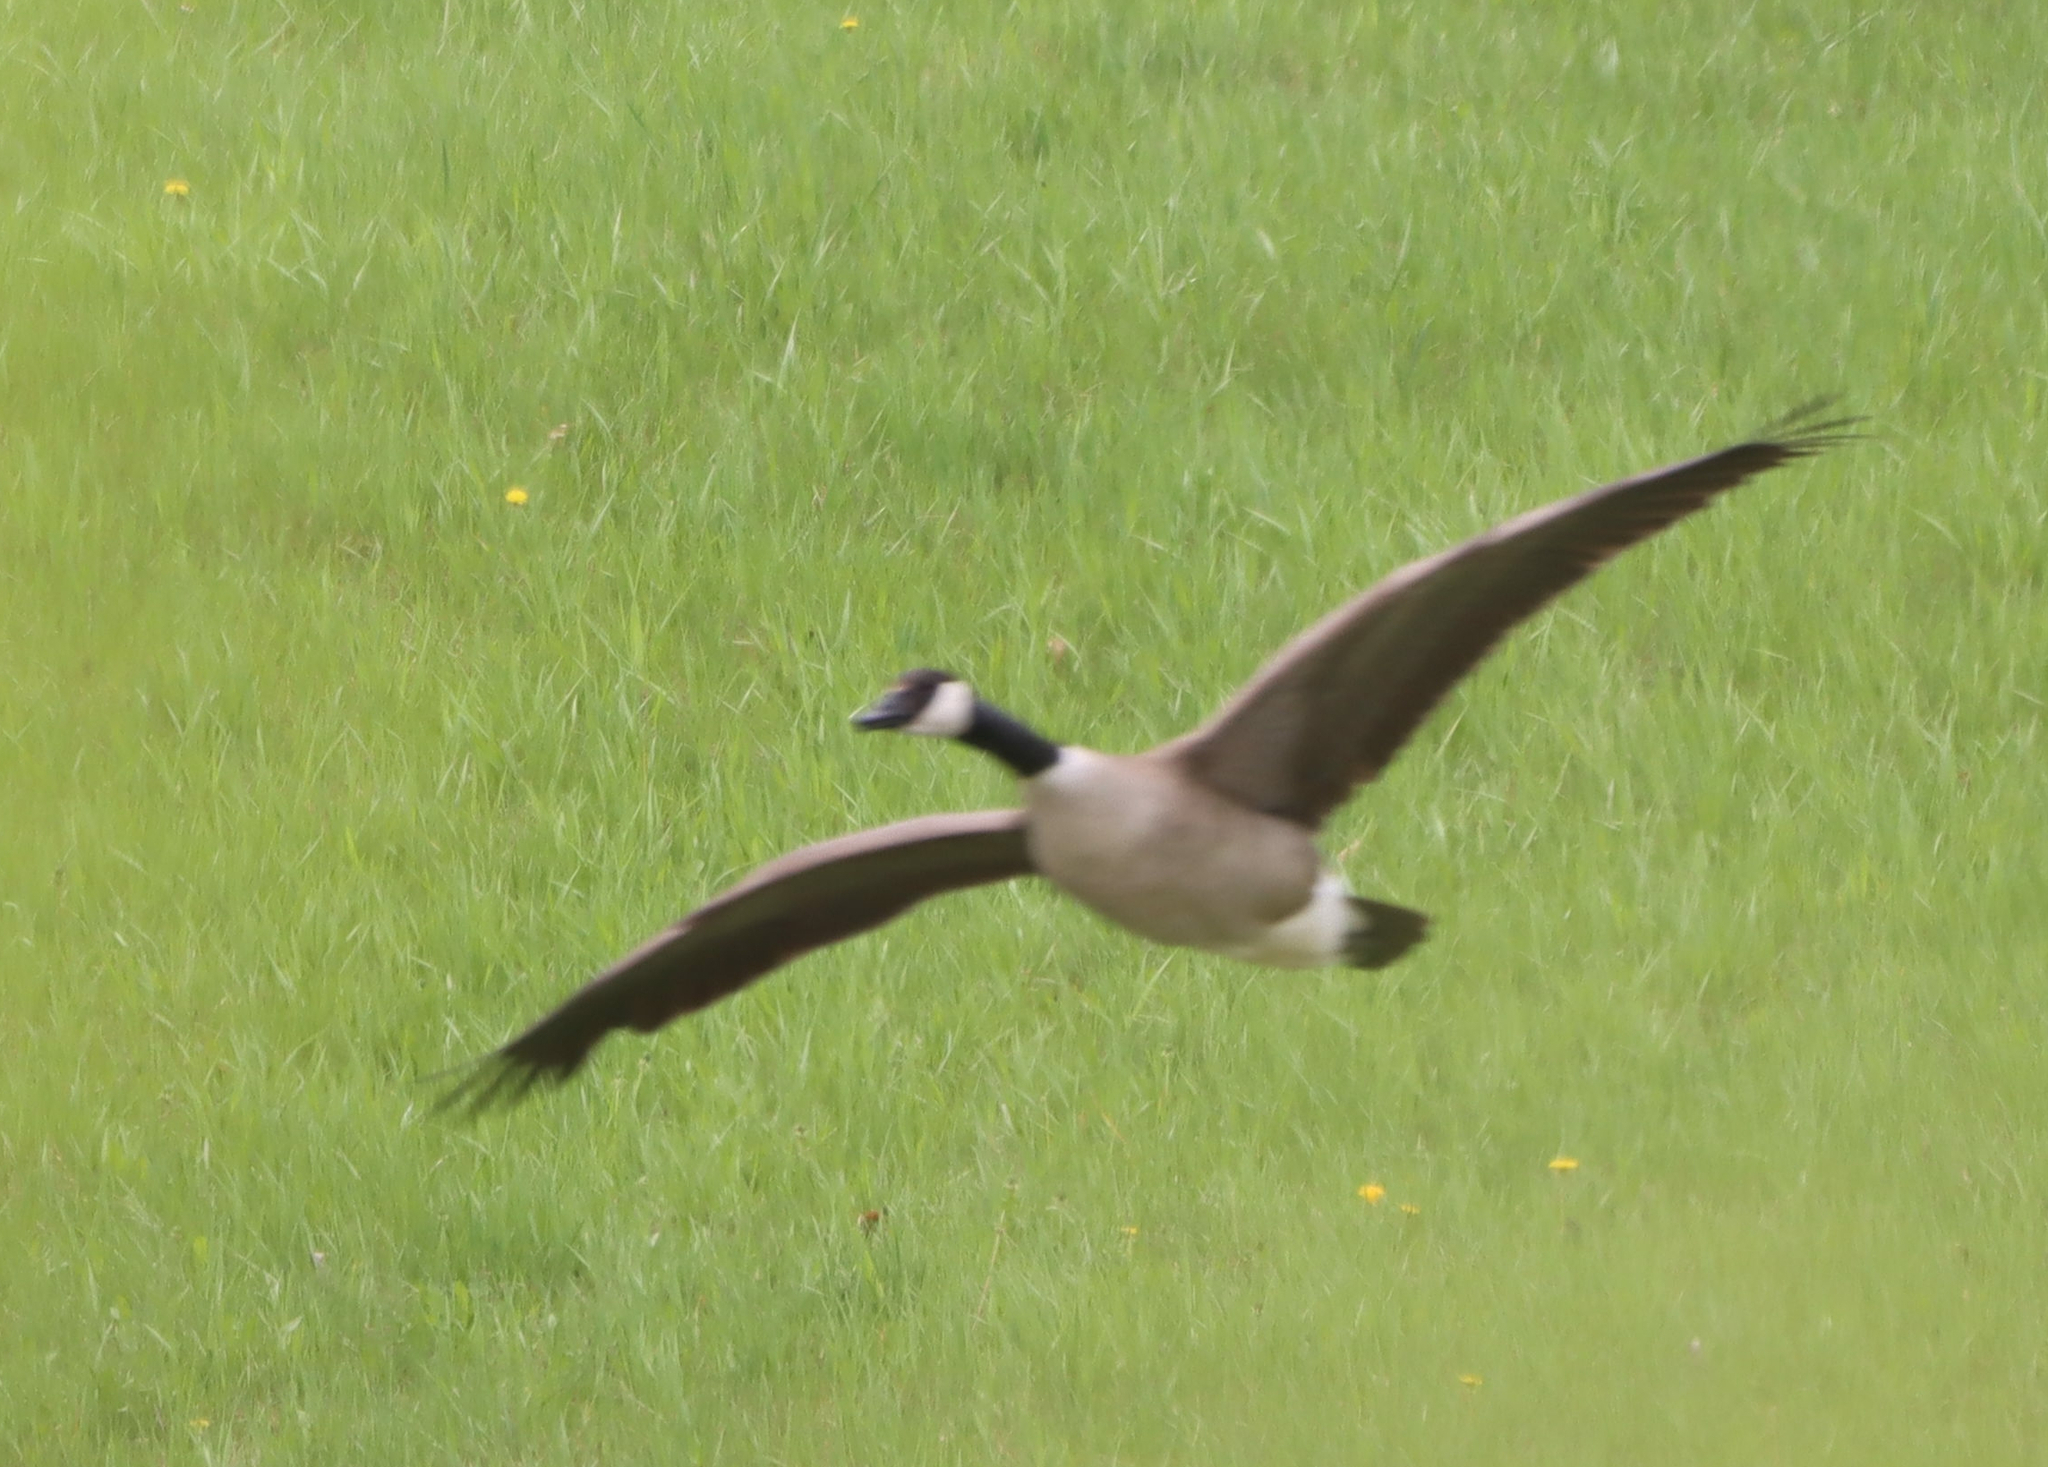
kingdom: Animalia
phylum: Chordata
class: Aves
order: Anseriformes
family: Anatidae
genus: Branta
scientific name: Branta canadensis
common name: Canada goose
